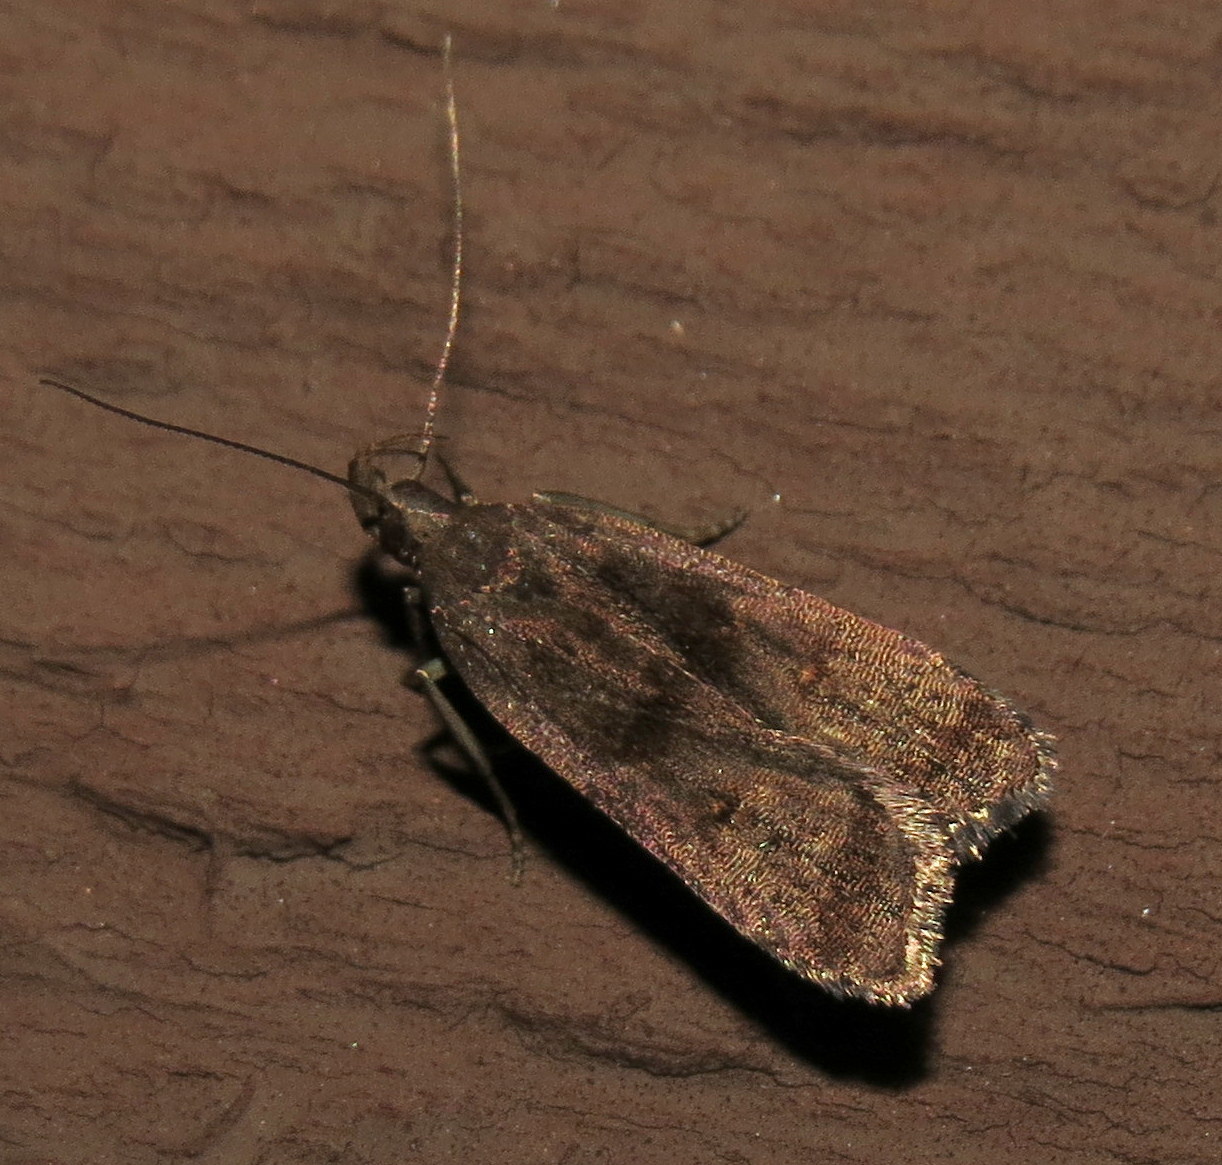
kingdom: Animalia
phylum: Arthropoda
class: Insecta
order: Lepidoptera
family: Gelechiidae
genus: Dichomeris
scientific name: Dichomeris leuconotella
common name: Two-spotted dichomeris moth
